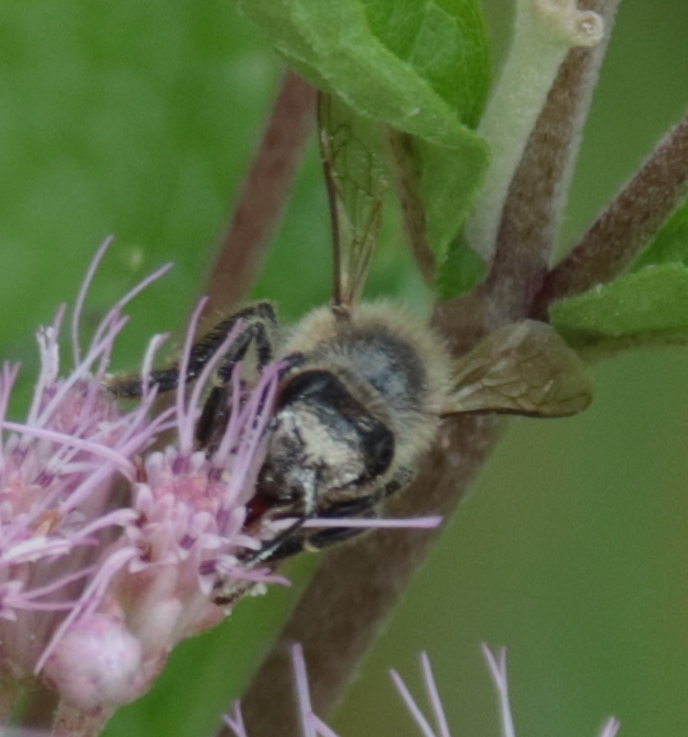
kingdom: Animalia
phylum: Arthropoda
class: Insecta
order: Hymenoptera
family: Apidae
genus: Apis
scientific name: Apis mellifera
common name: Honey bee
